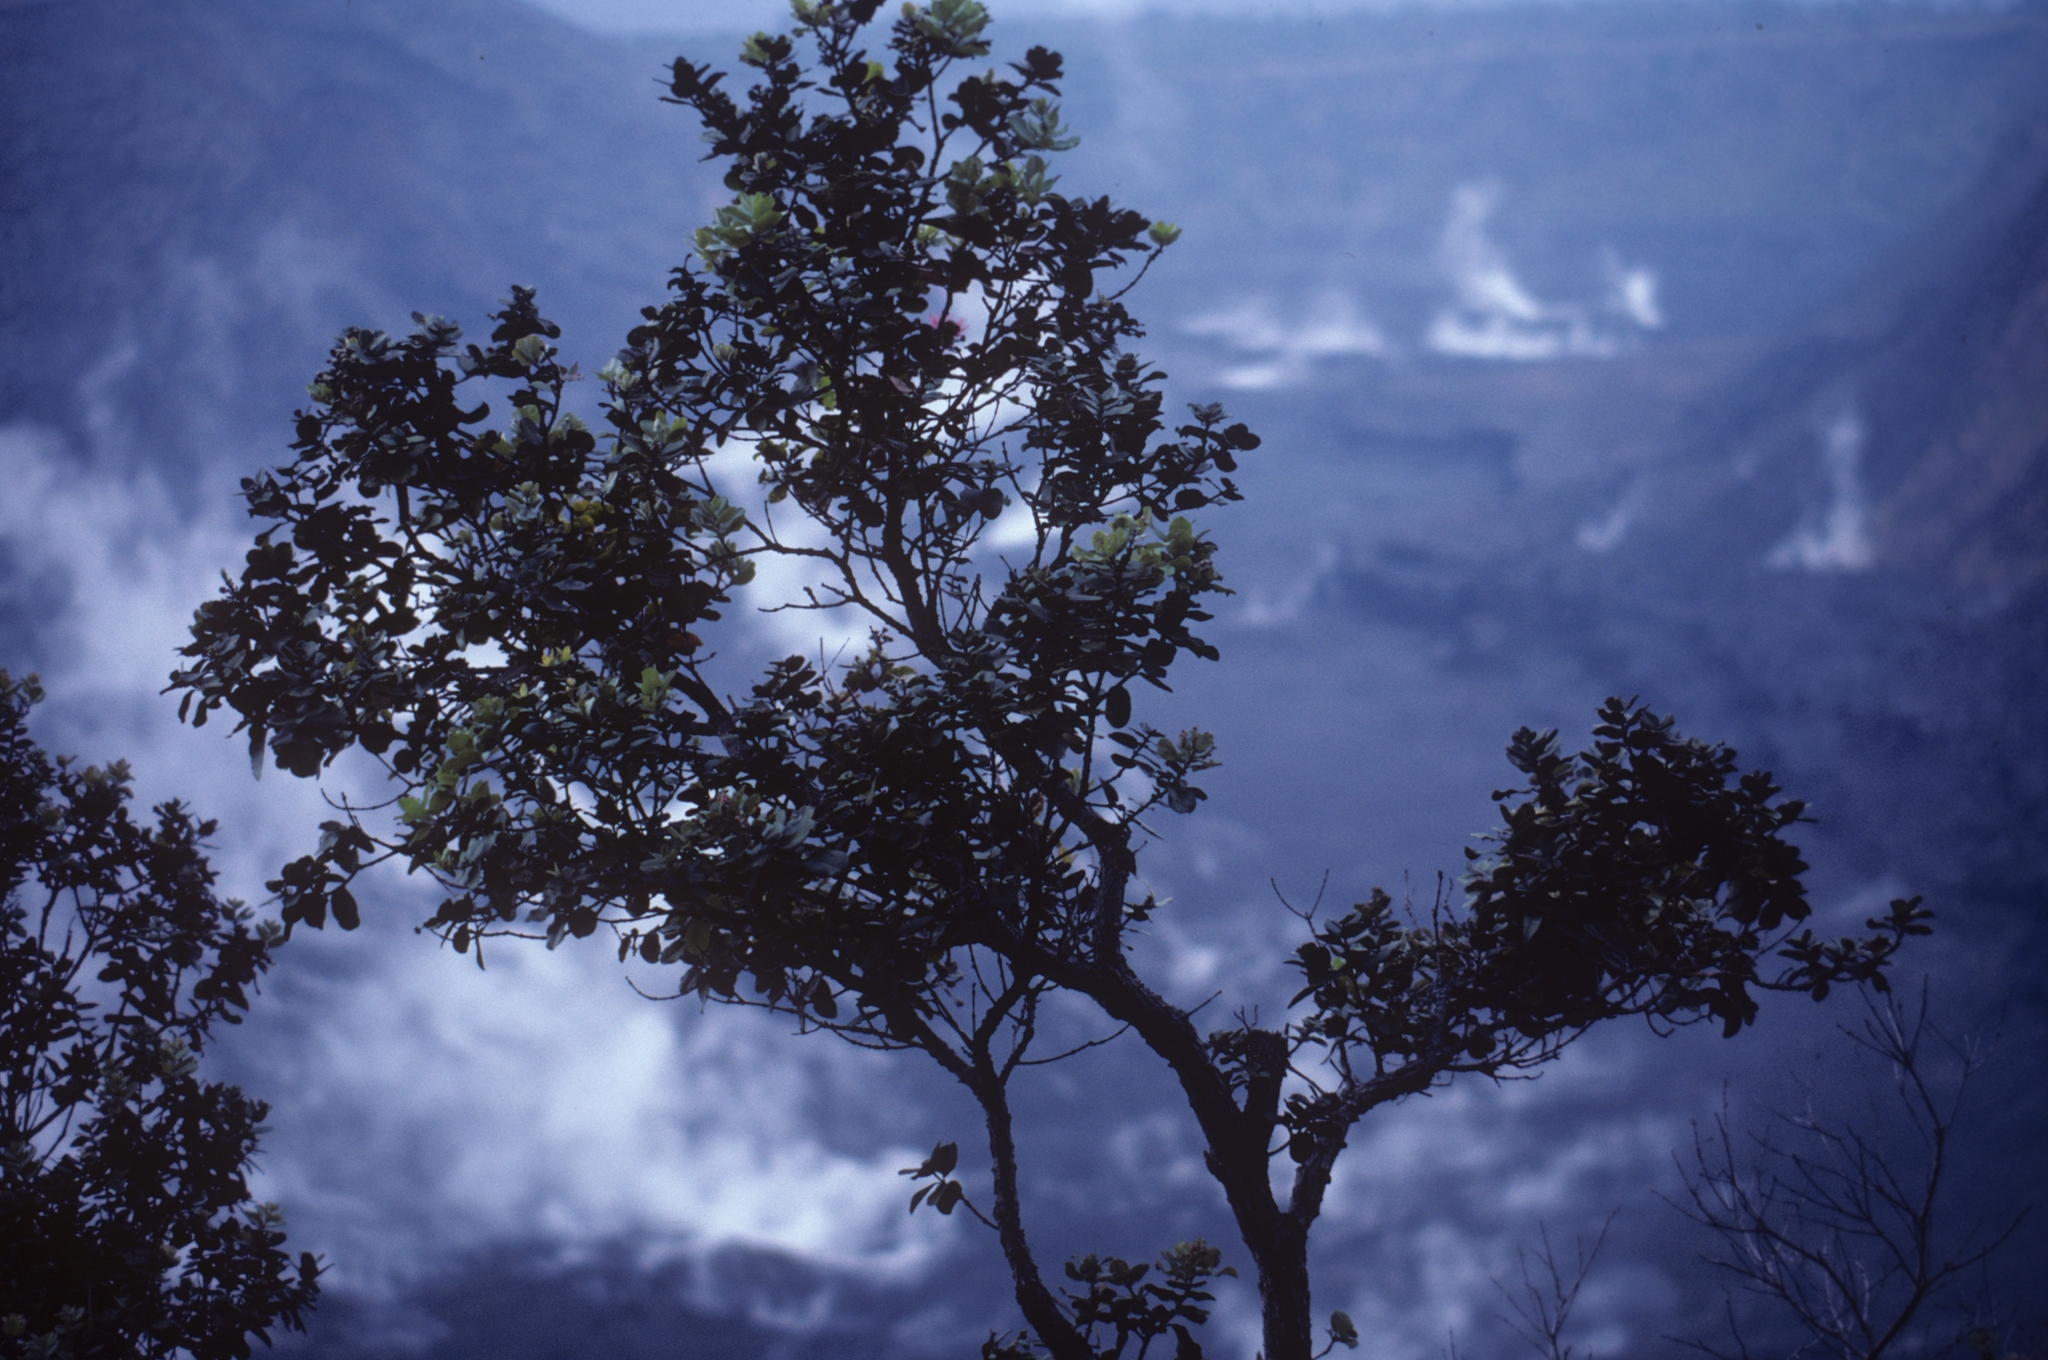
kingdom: Plantae
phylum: Tracheophyta
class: Magnoliopsida
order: Myrtales
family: Myrtaceae
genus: Metrosideros
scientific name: Metrosideros polymorpha
